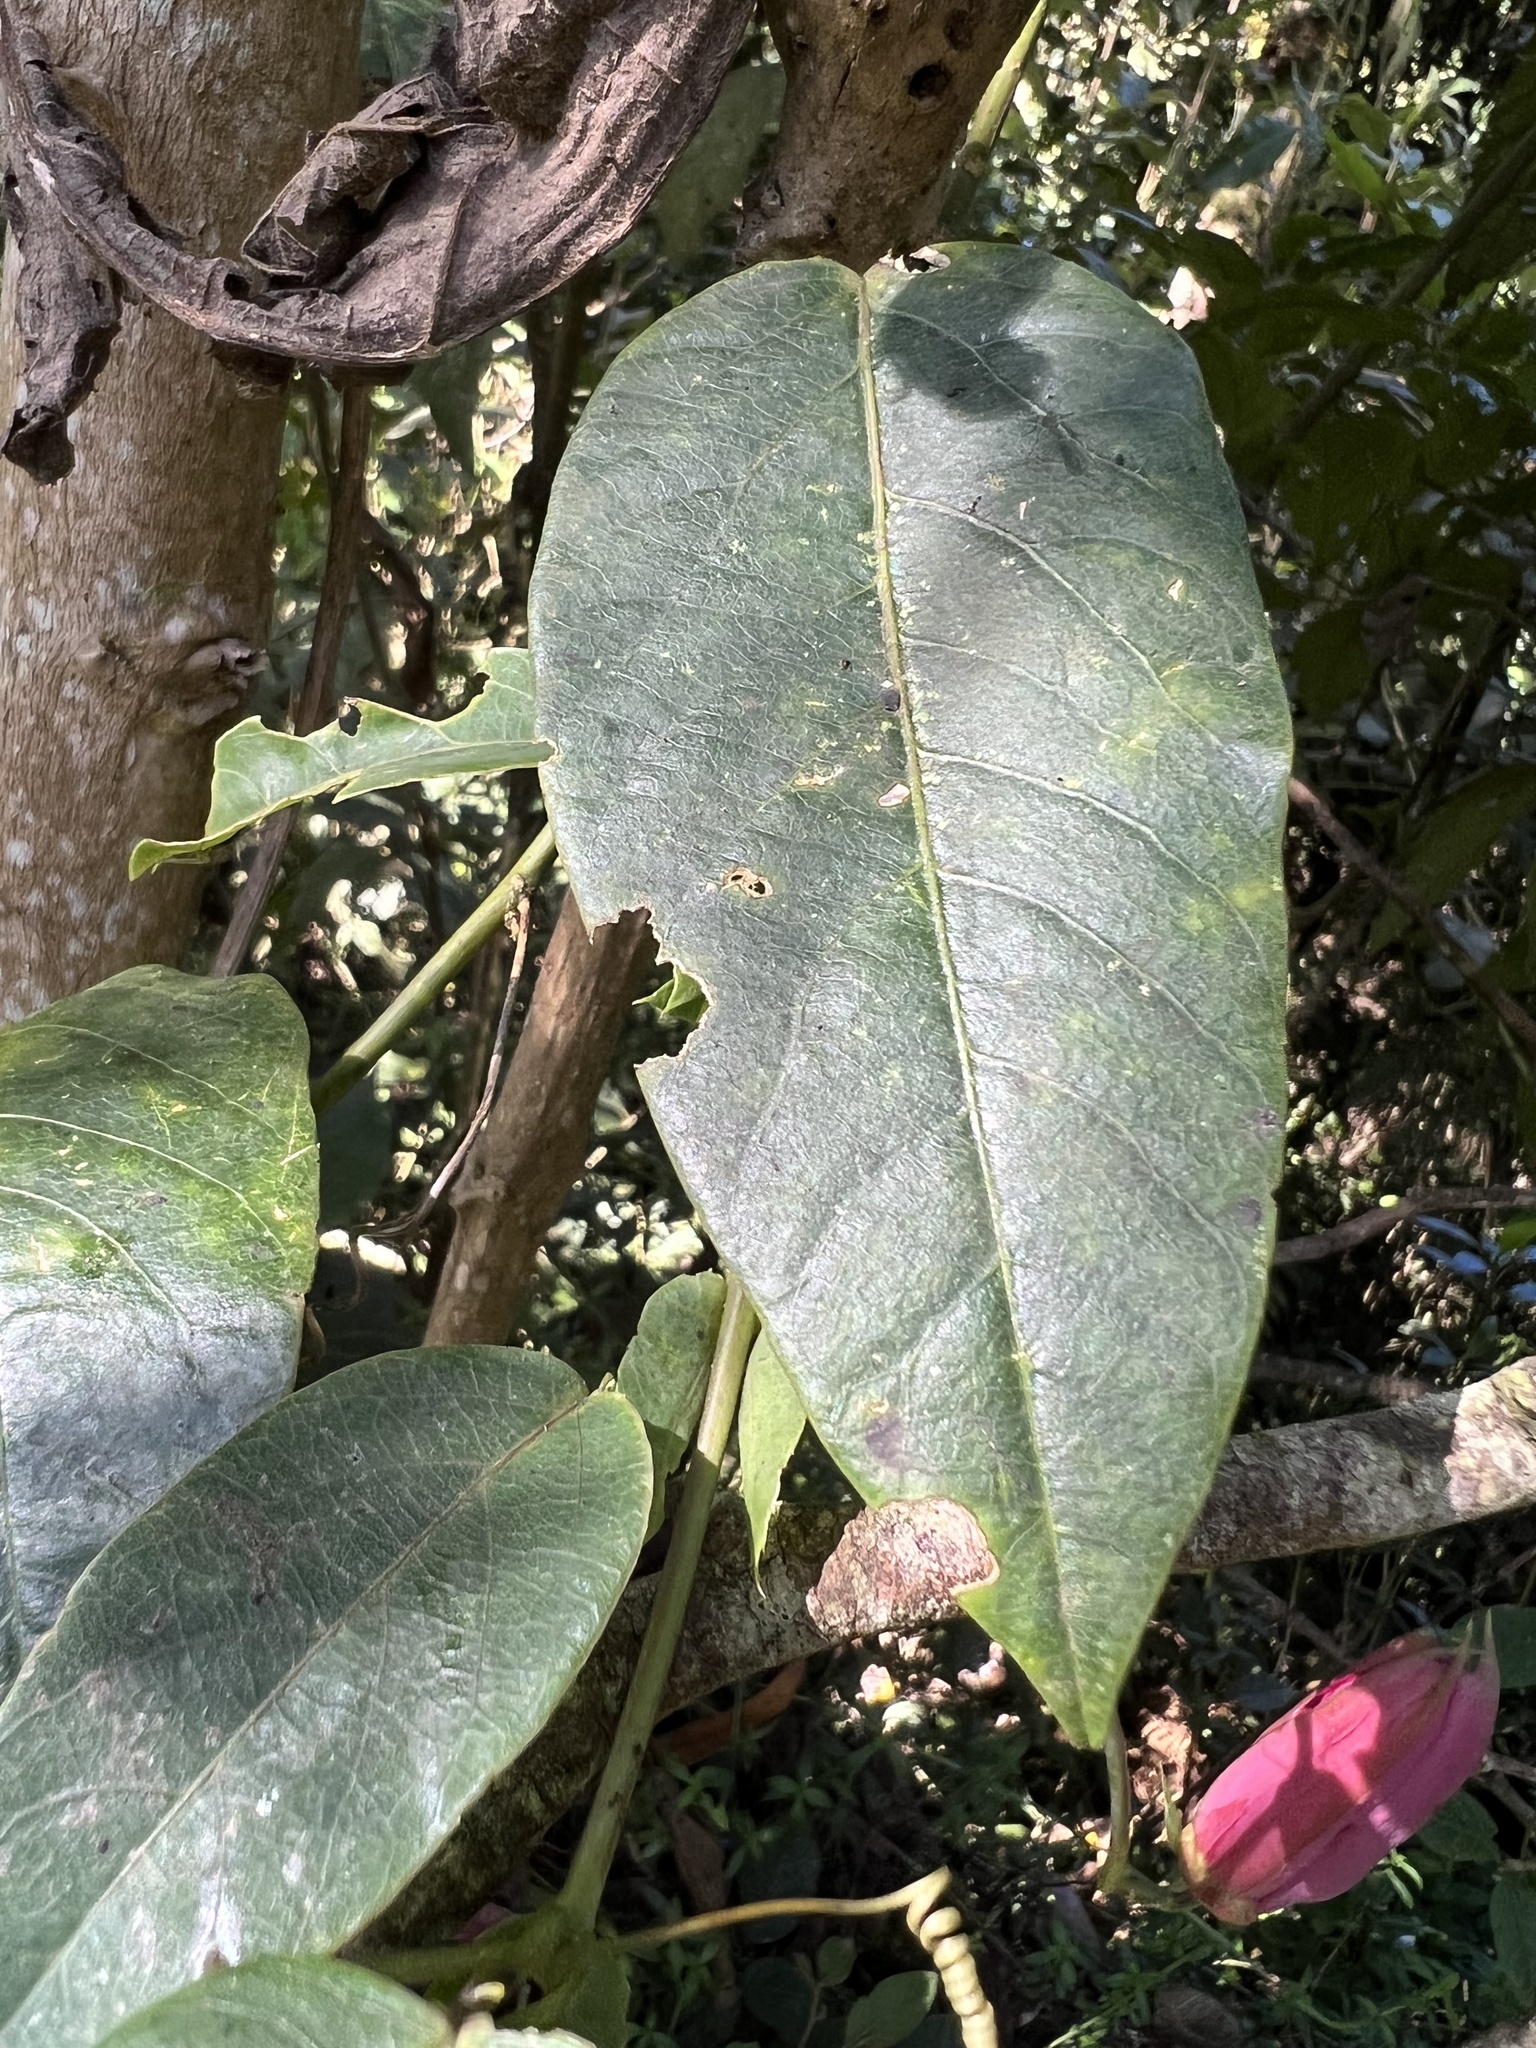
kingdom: Plantae
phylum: Tracheophyta
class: Magnoliopsida
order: Malpighiales
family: Passifloraceae
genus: Passiflora
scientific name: Passiflora longipes
